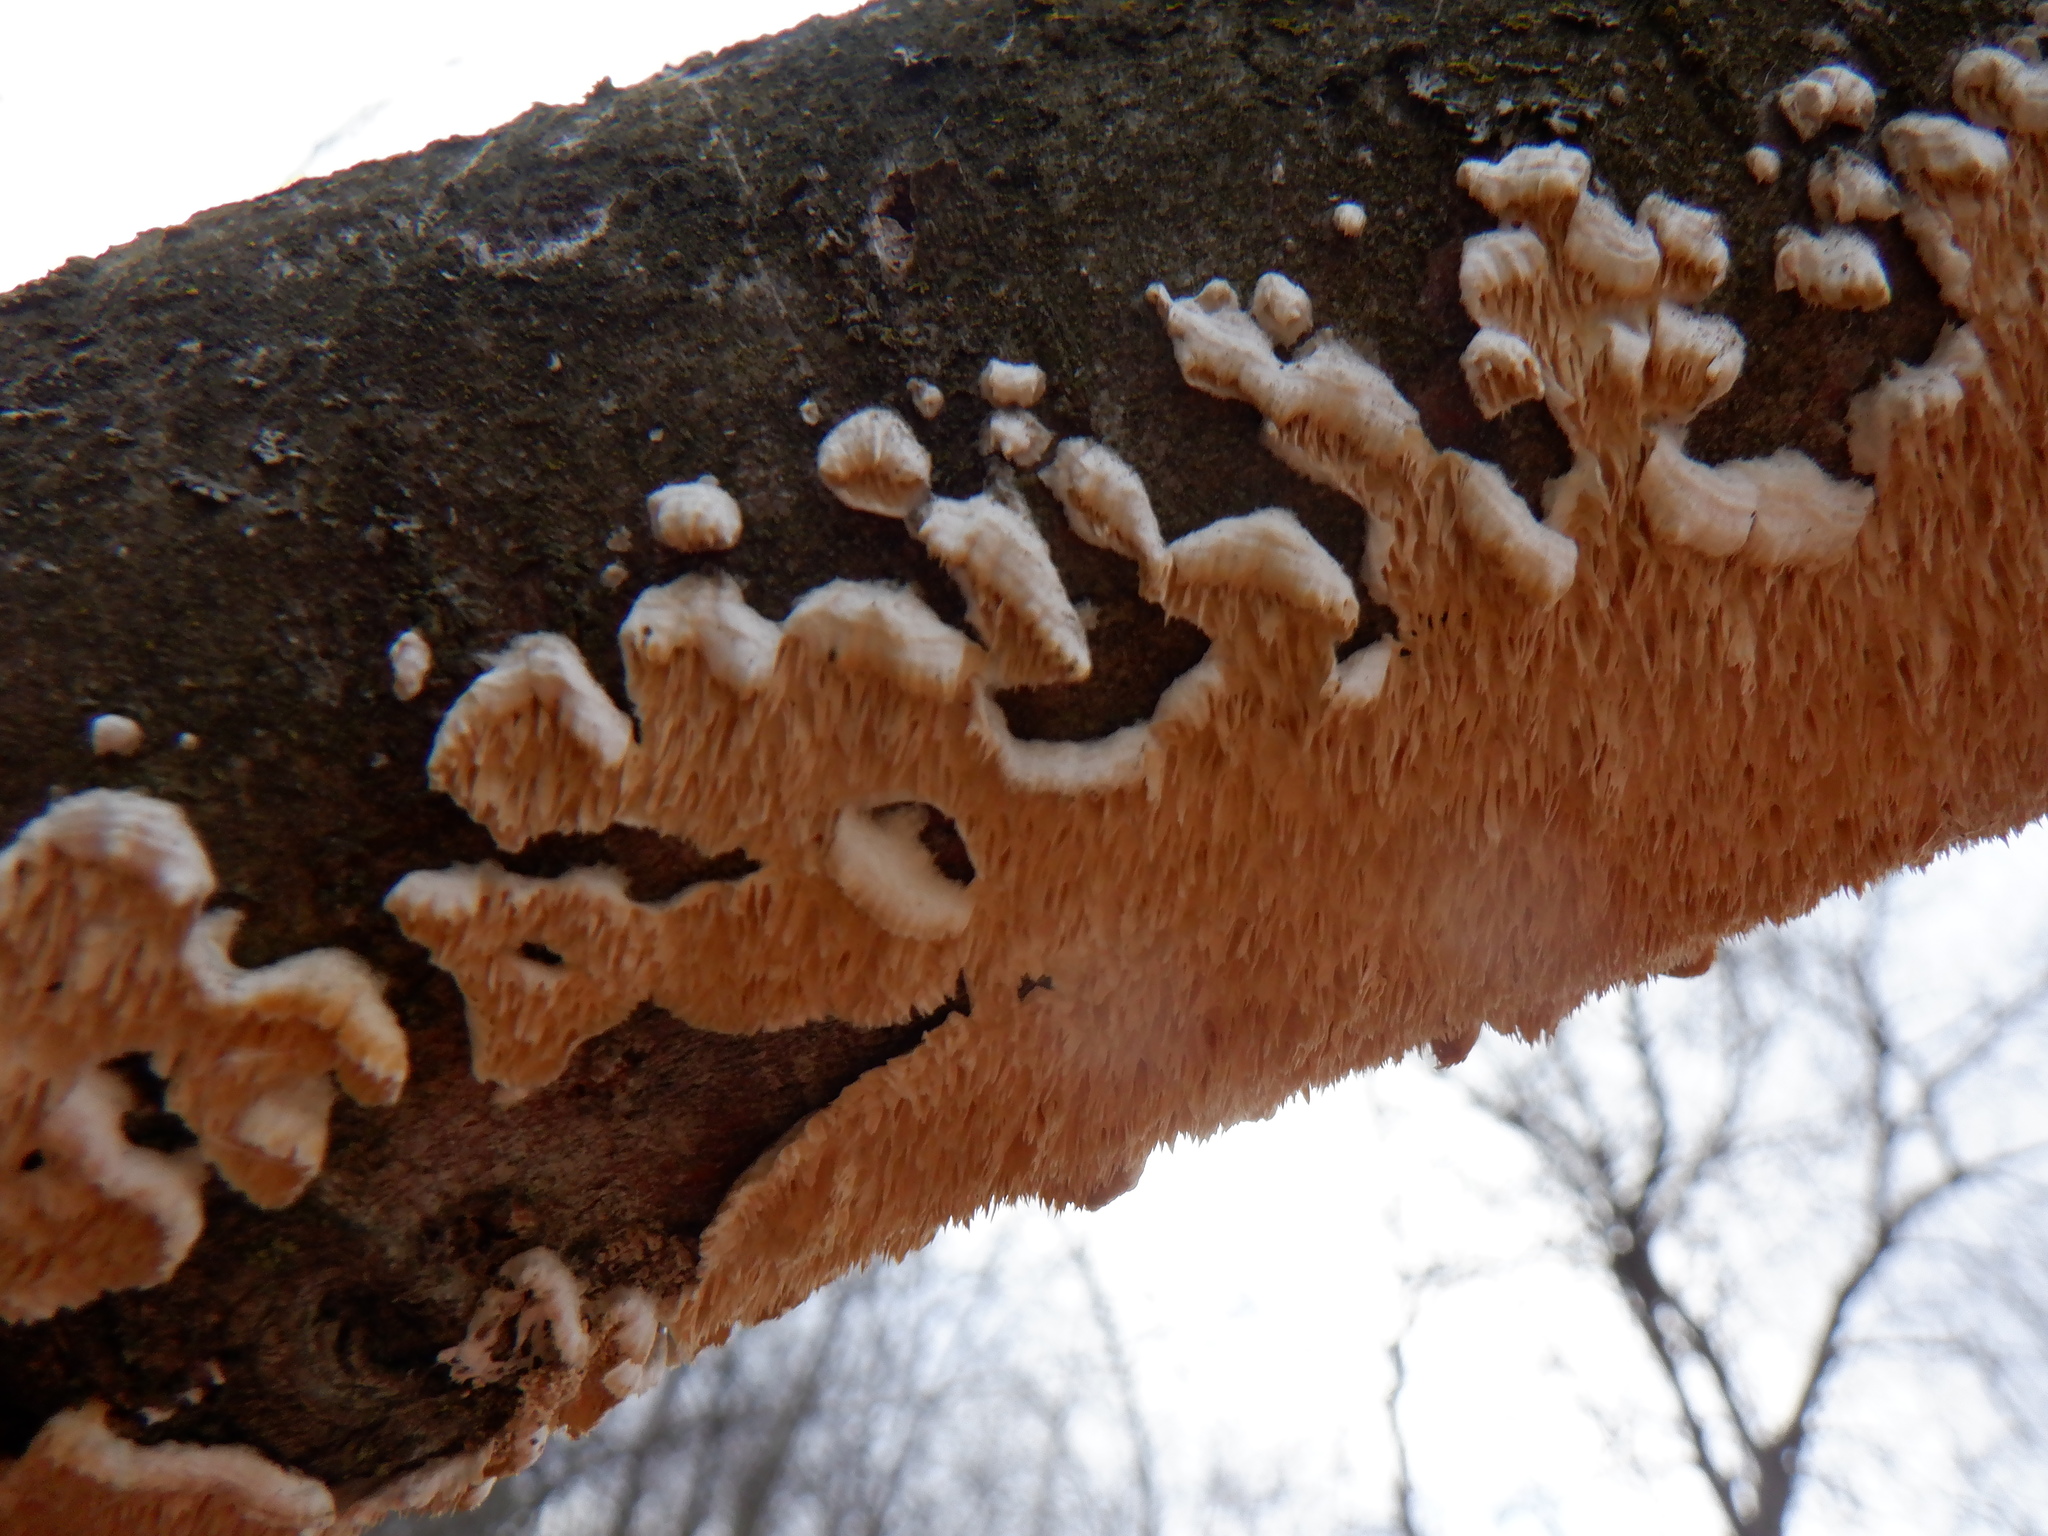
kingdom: Fungi
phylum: Basidiomycota
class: Agaricomycetes
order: Polyporales
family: Irpicaceae
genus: Irpex
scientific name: Irpex lacteus
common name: Milk-white toothed polypore
